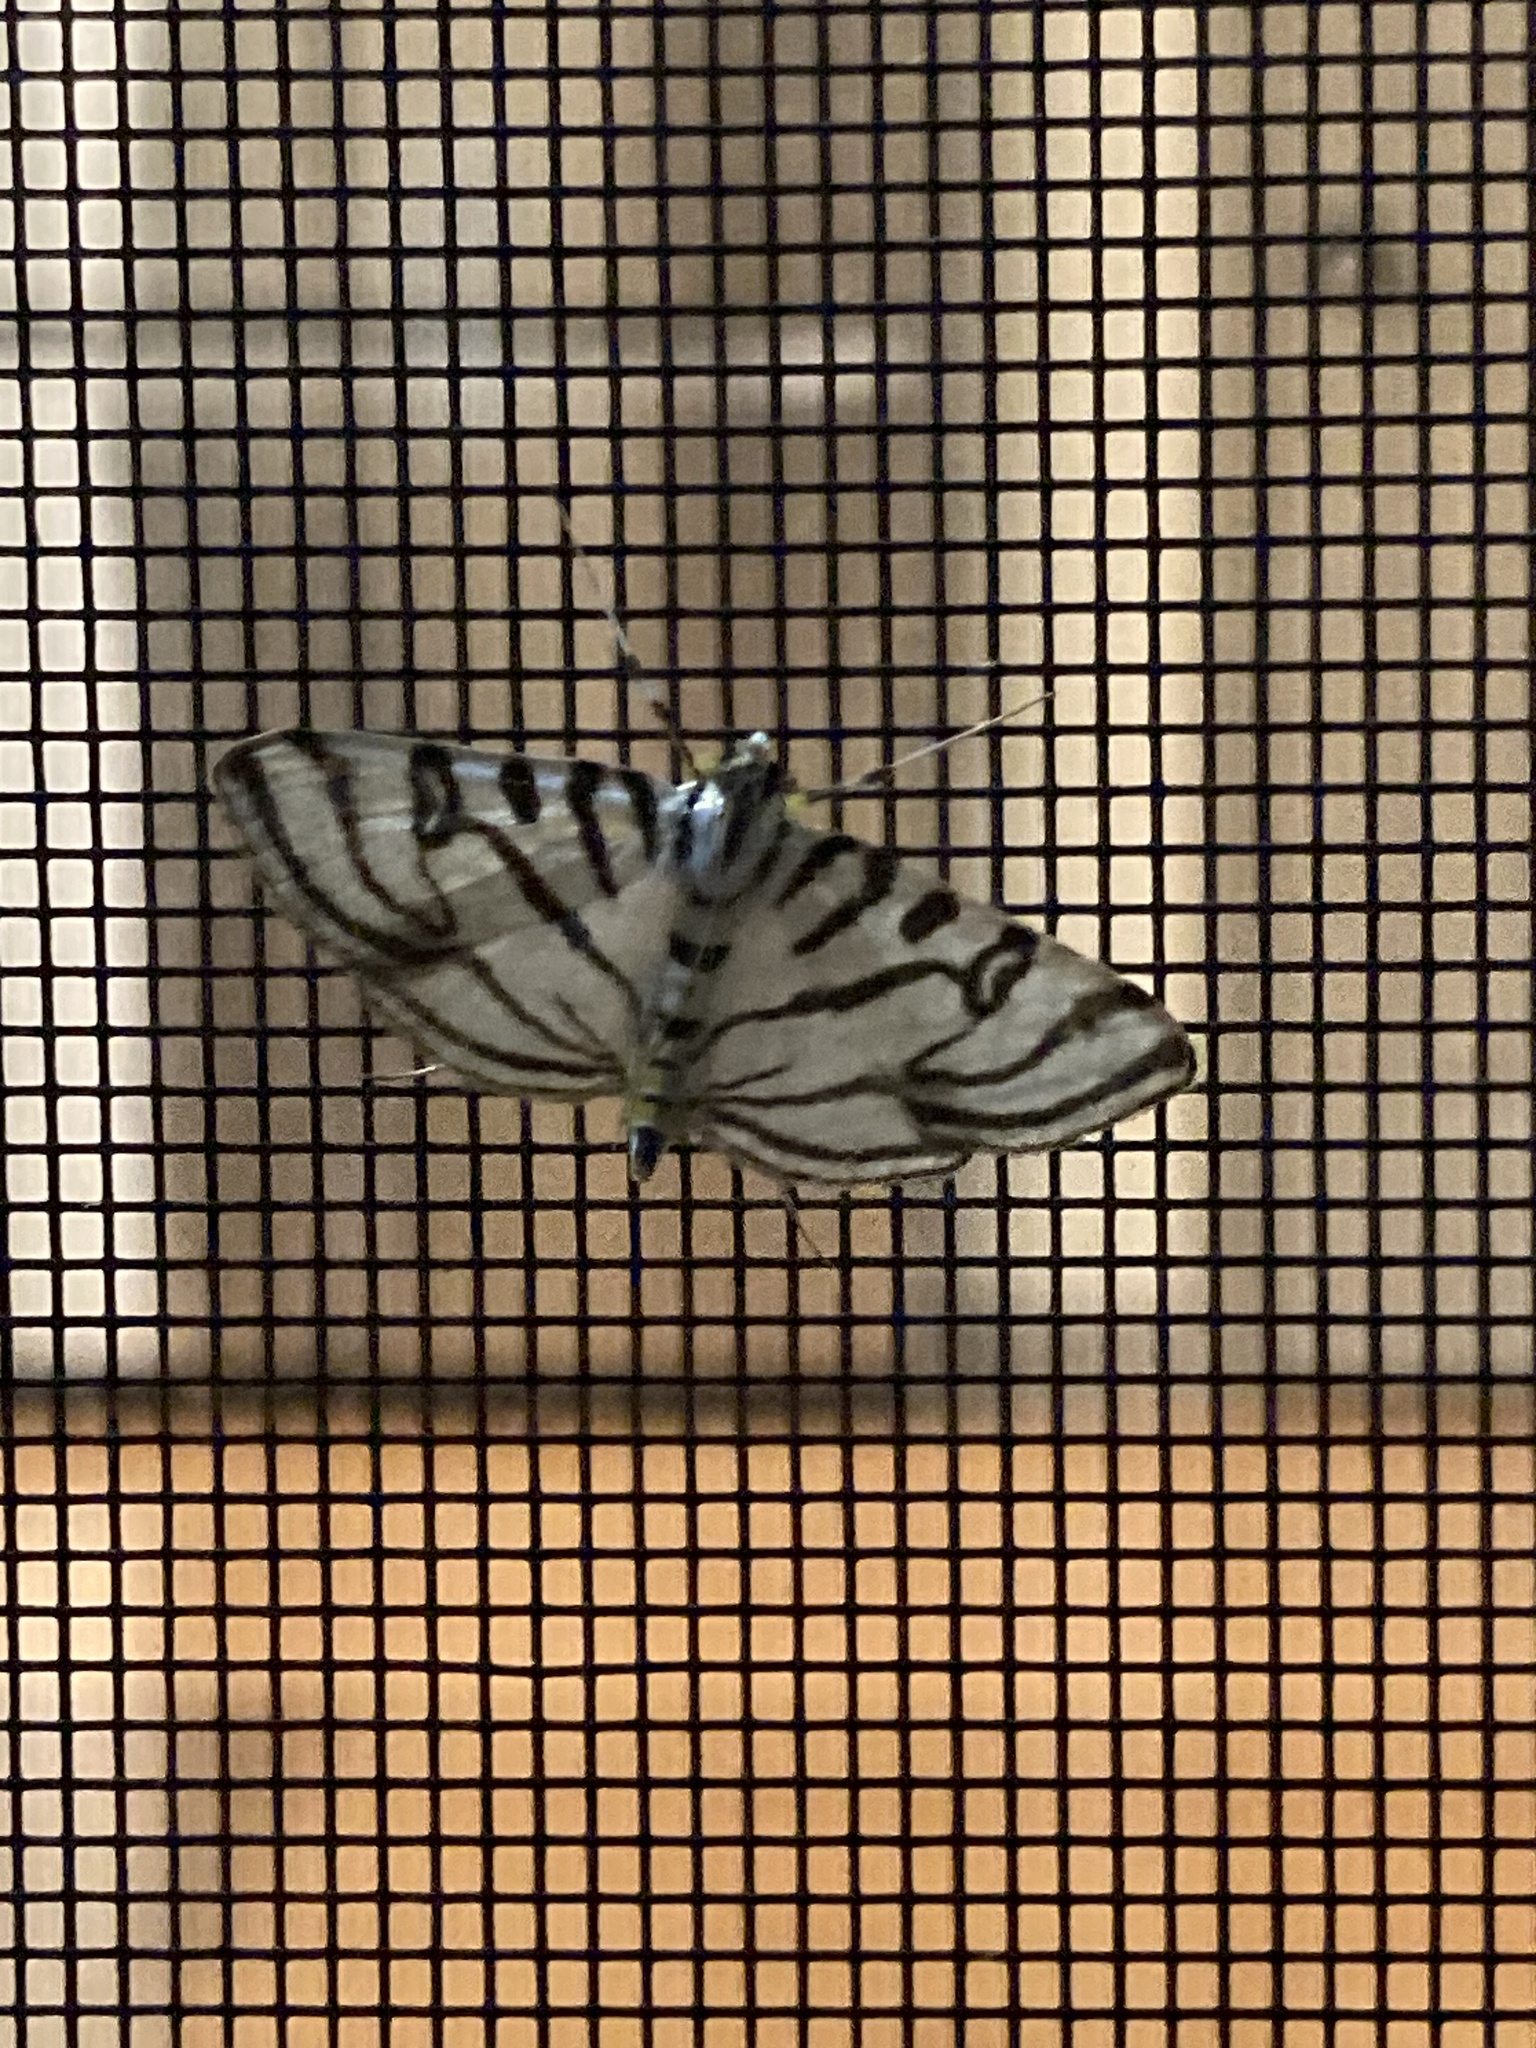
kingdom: Animalia
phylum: Arthropoda
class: Insecta
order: Lepidoptera
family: Crambidae
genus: Conchylodes
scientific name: Conchylodes ovulalis
